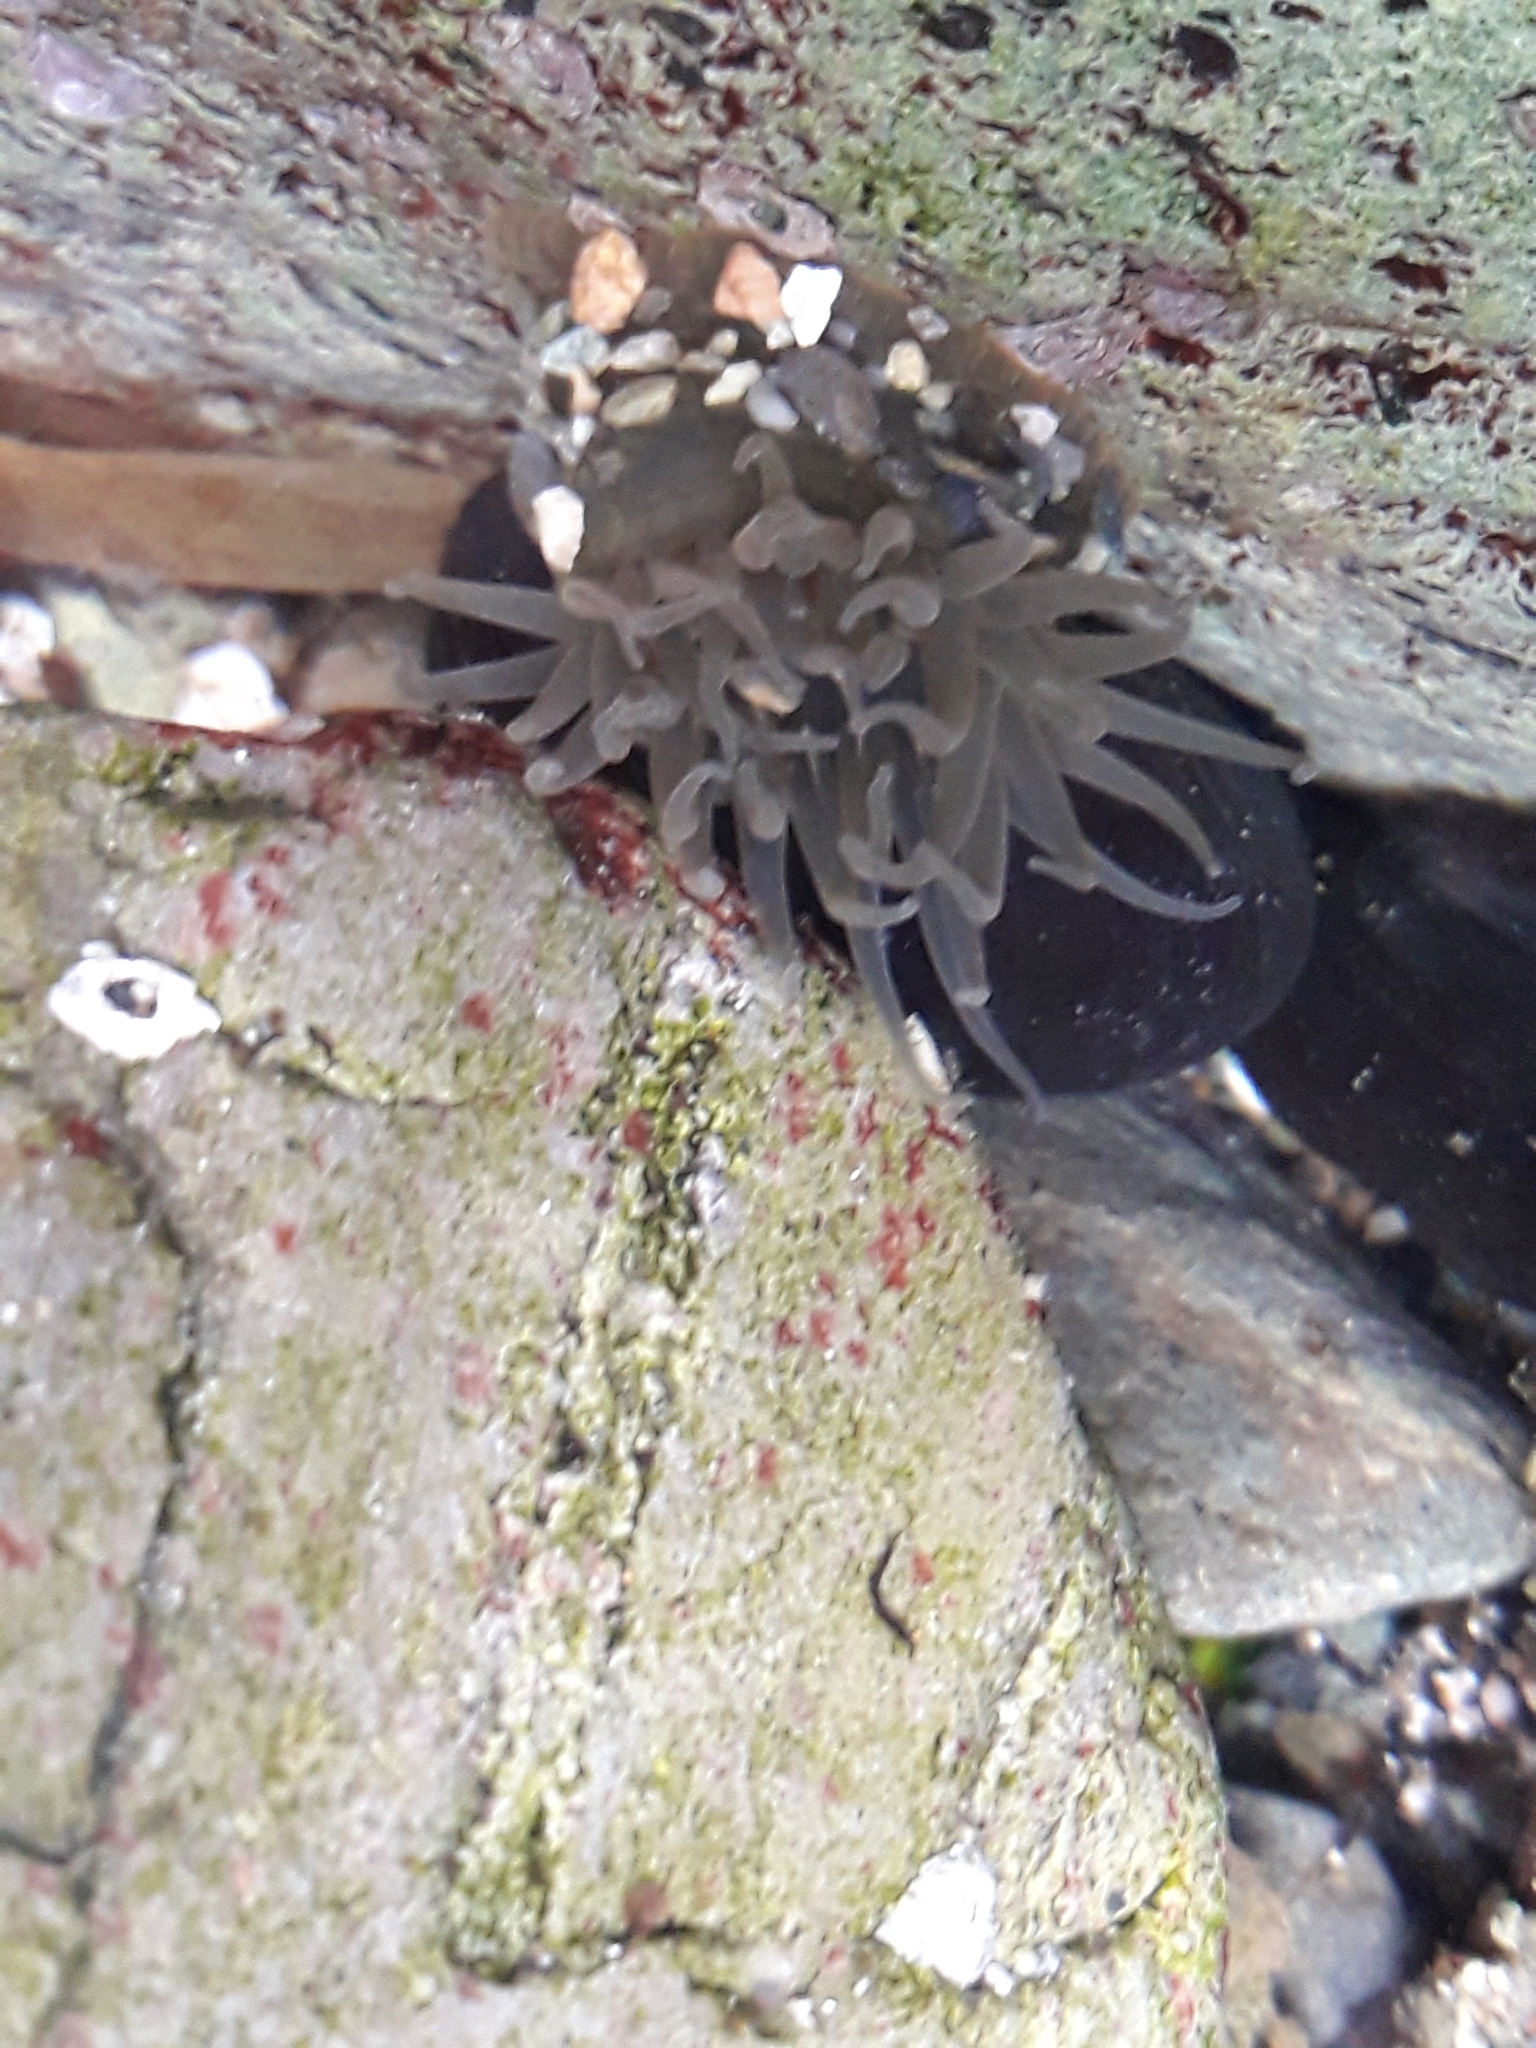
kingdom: Animalia
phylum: Cnidaria
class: Anthozoa
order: Actiniaria
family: Actiniidae
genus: Anthopleura
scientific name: Anthopleura hermaphroditica
